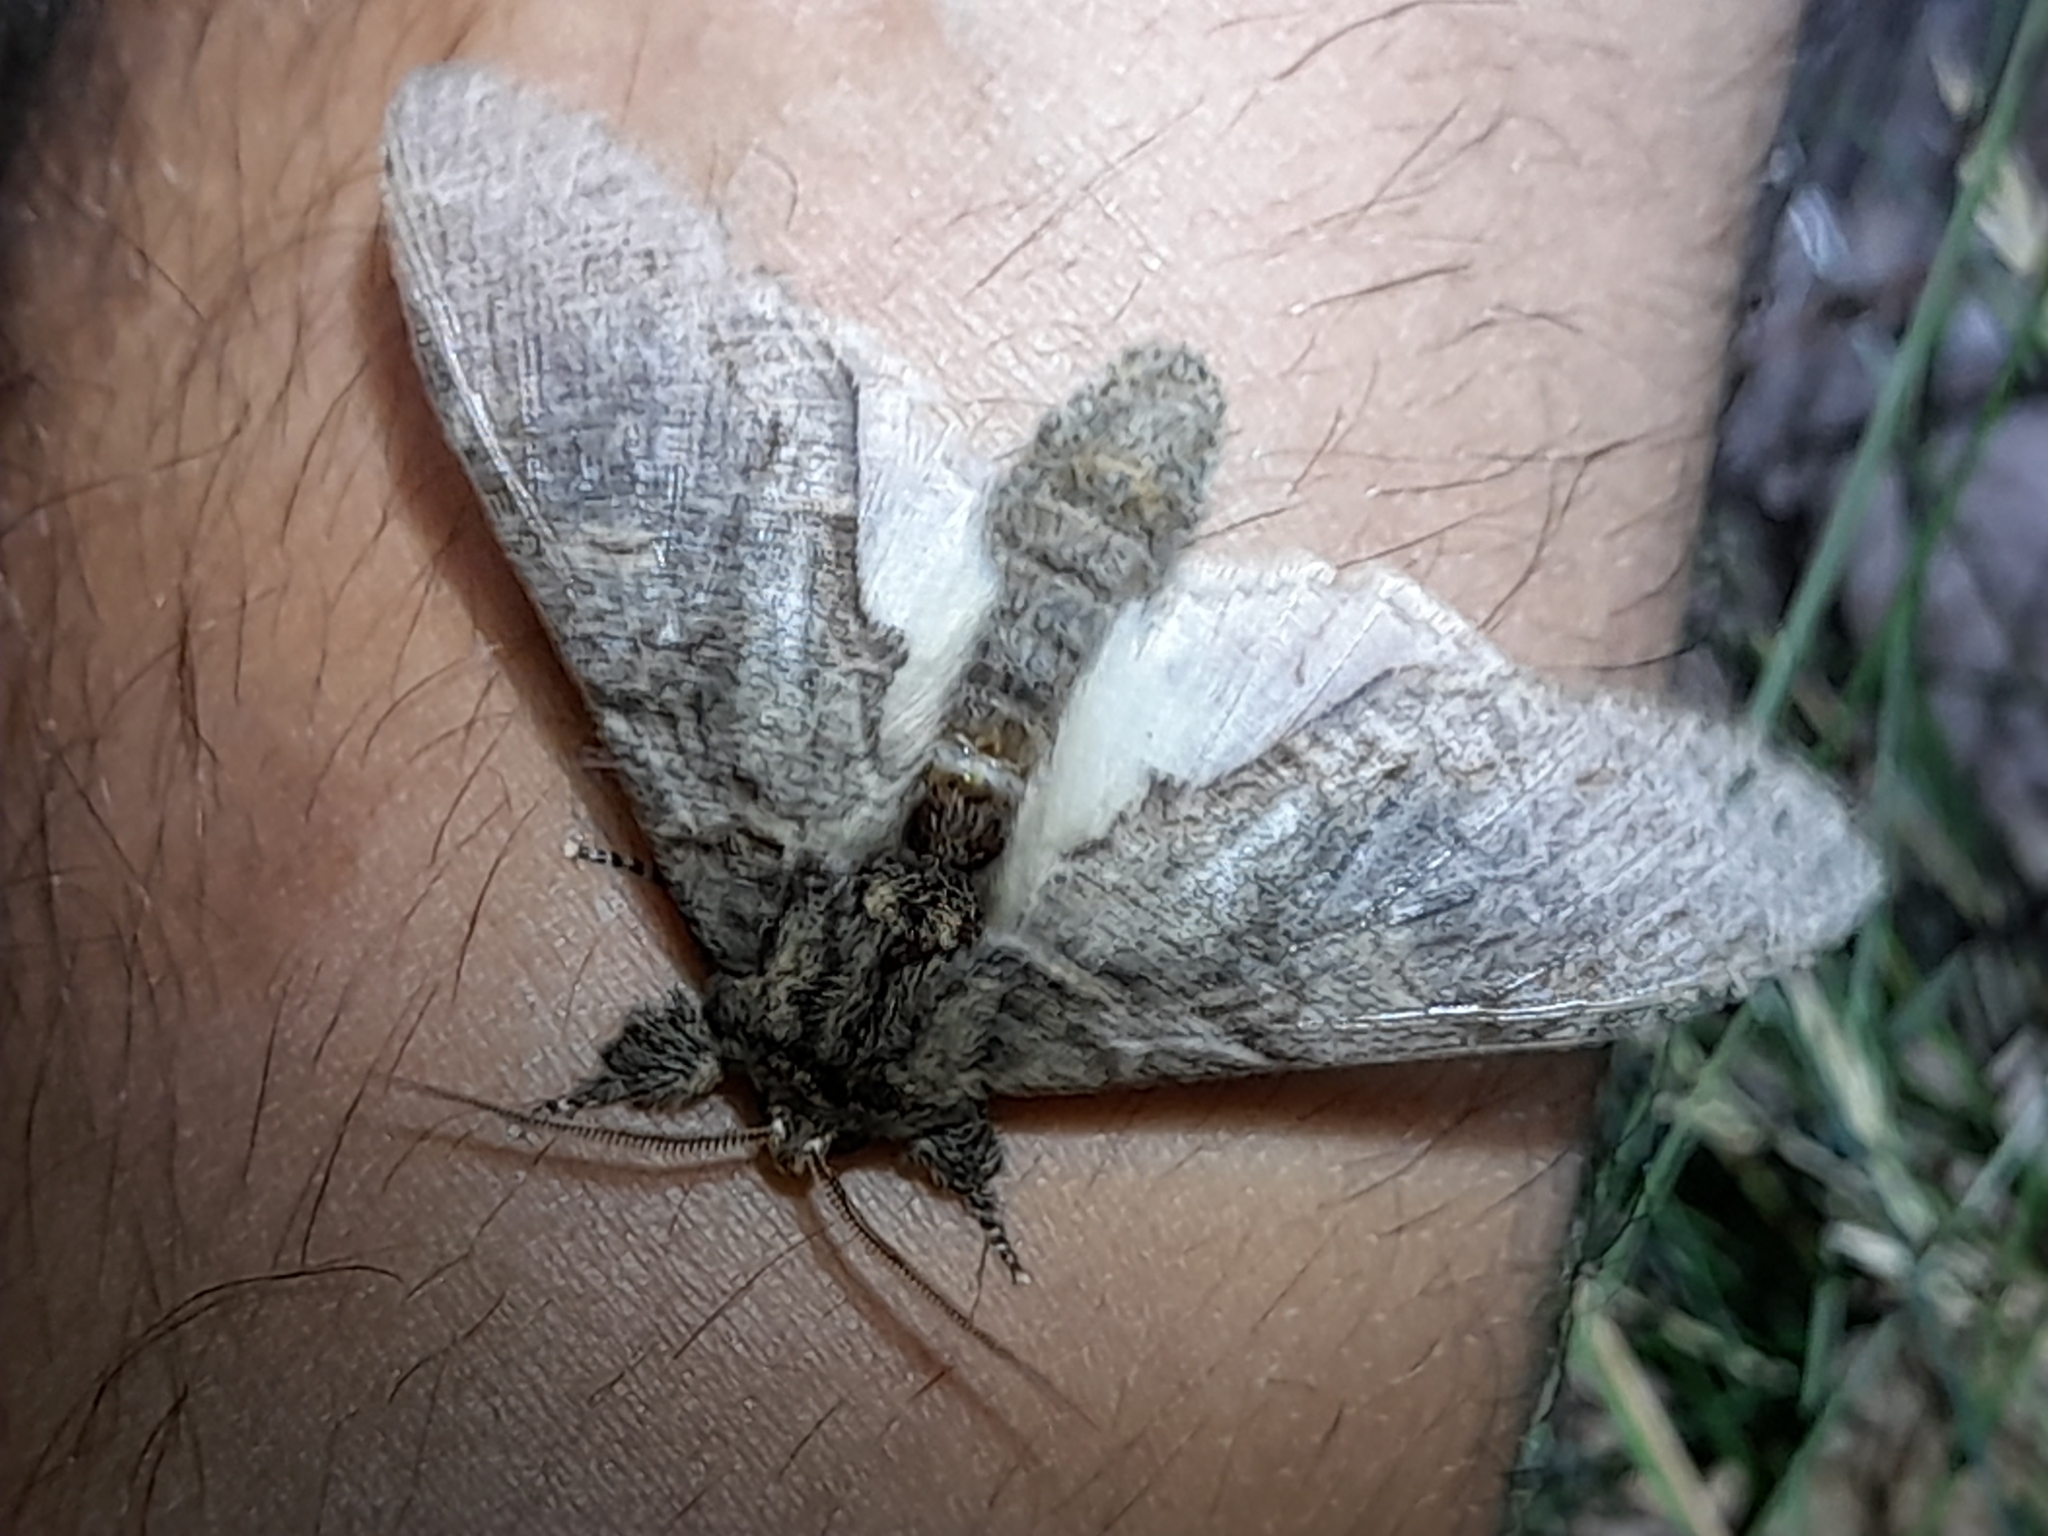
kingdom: Animalia
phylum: Arthropoda
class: Insecta
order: Lepidoptera
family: Notodontidae
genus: Peridea
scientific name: Peridea anceps
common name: Great prominent
